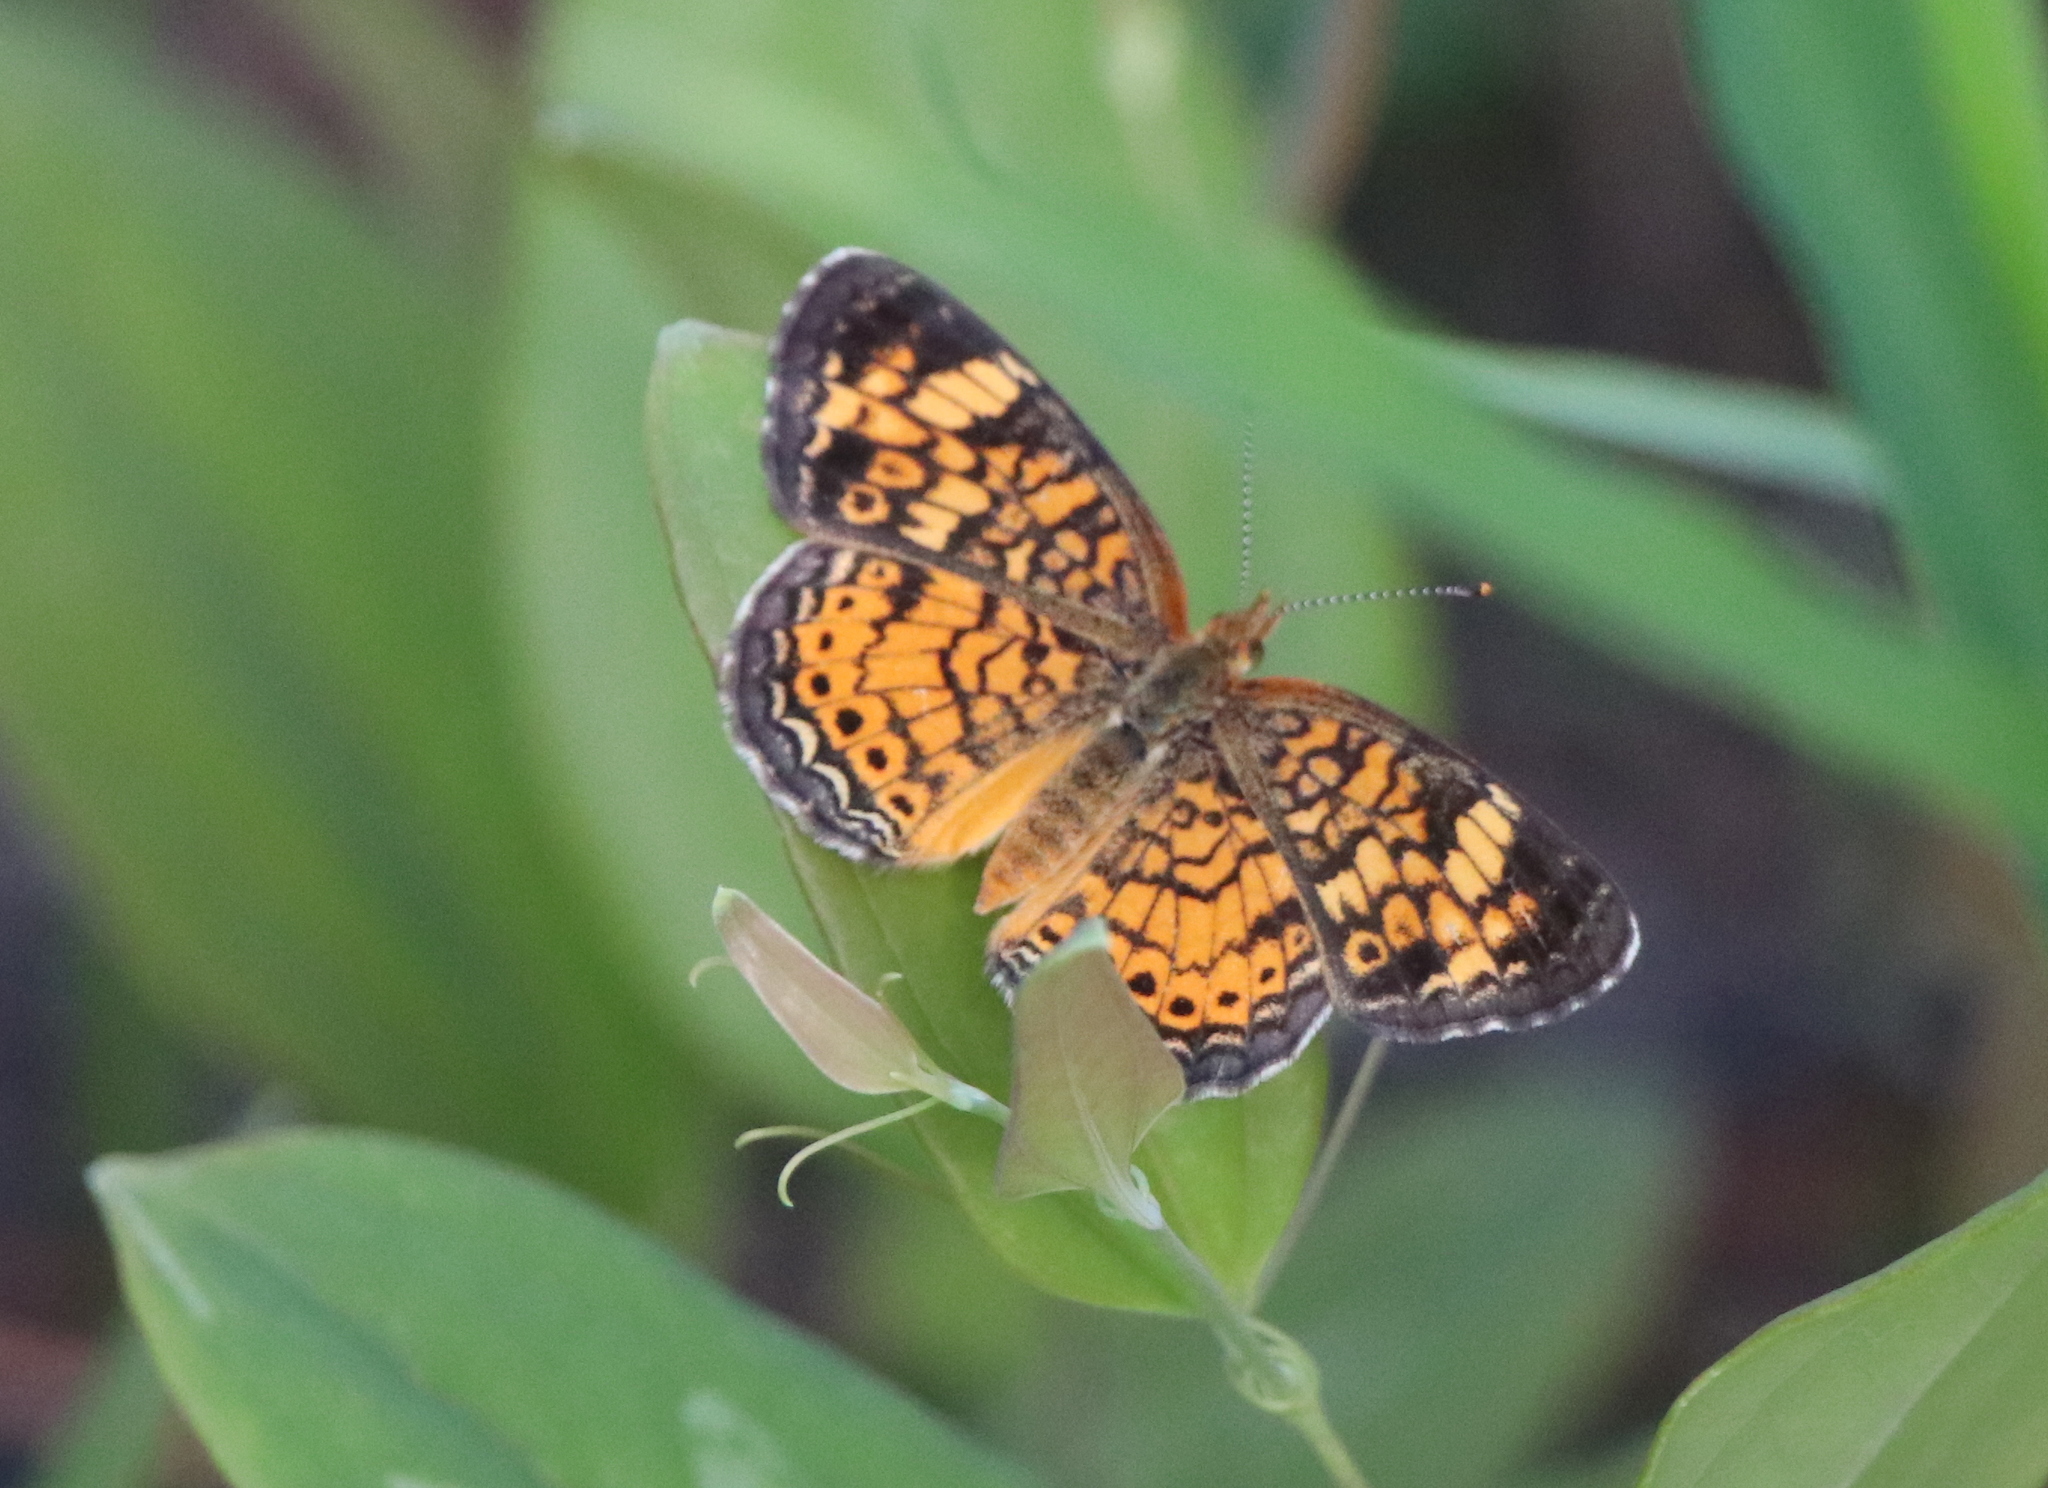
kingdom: Animalia
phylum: Arthropoda
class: Insecta
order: Lepidoptera
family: Nymphalidae
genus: Phyciodes
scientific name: Phyciodes tharos
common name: Pearl crescent
